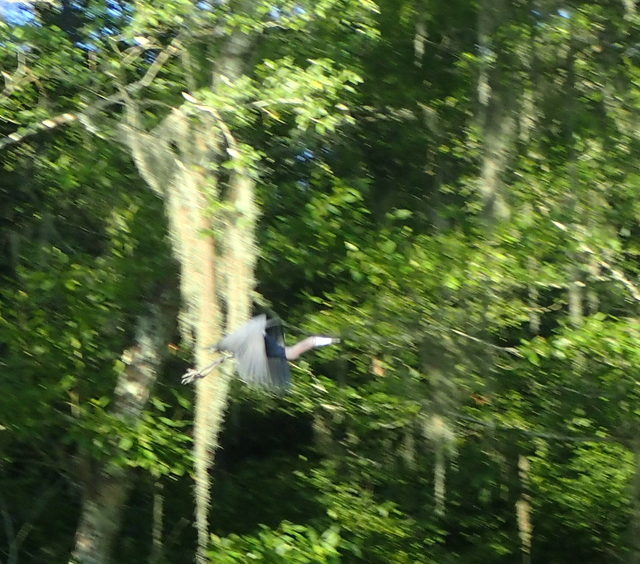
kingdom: Animalia
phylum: Chordata
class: Aves
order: Pelecaniformes
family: Ardeidae
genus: Egretta
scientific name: Egretta caerulea
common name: Little blue heron
